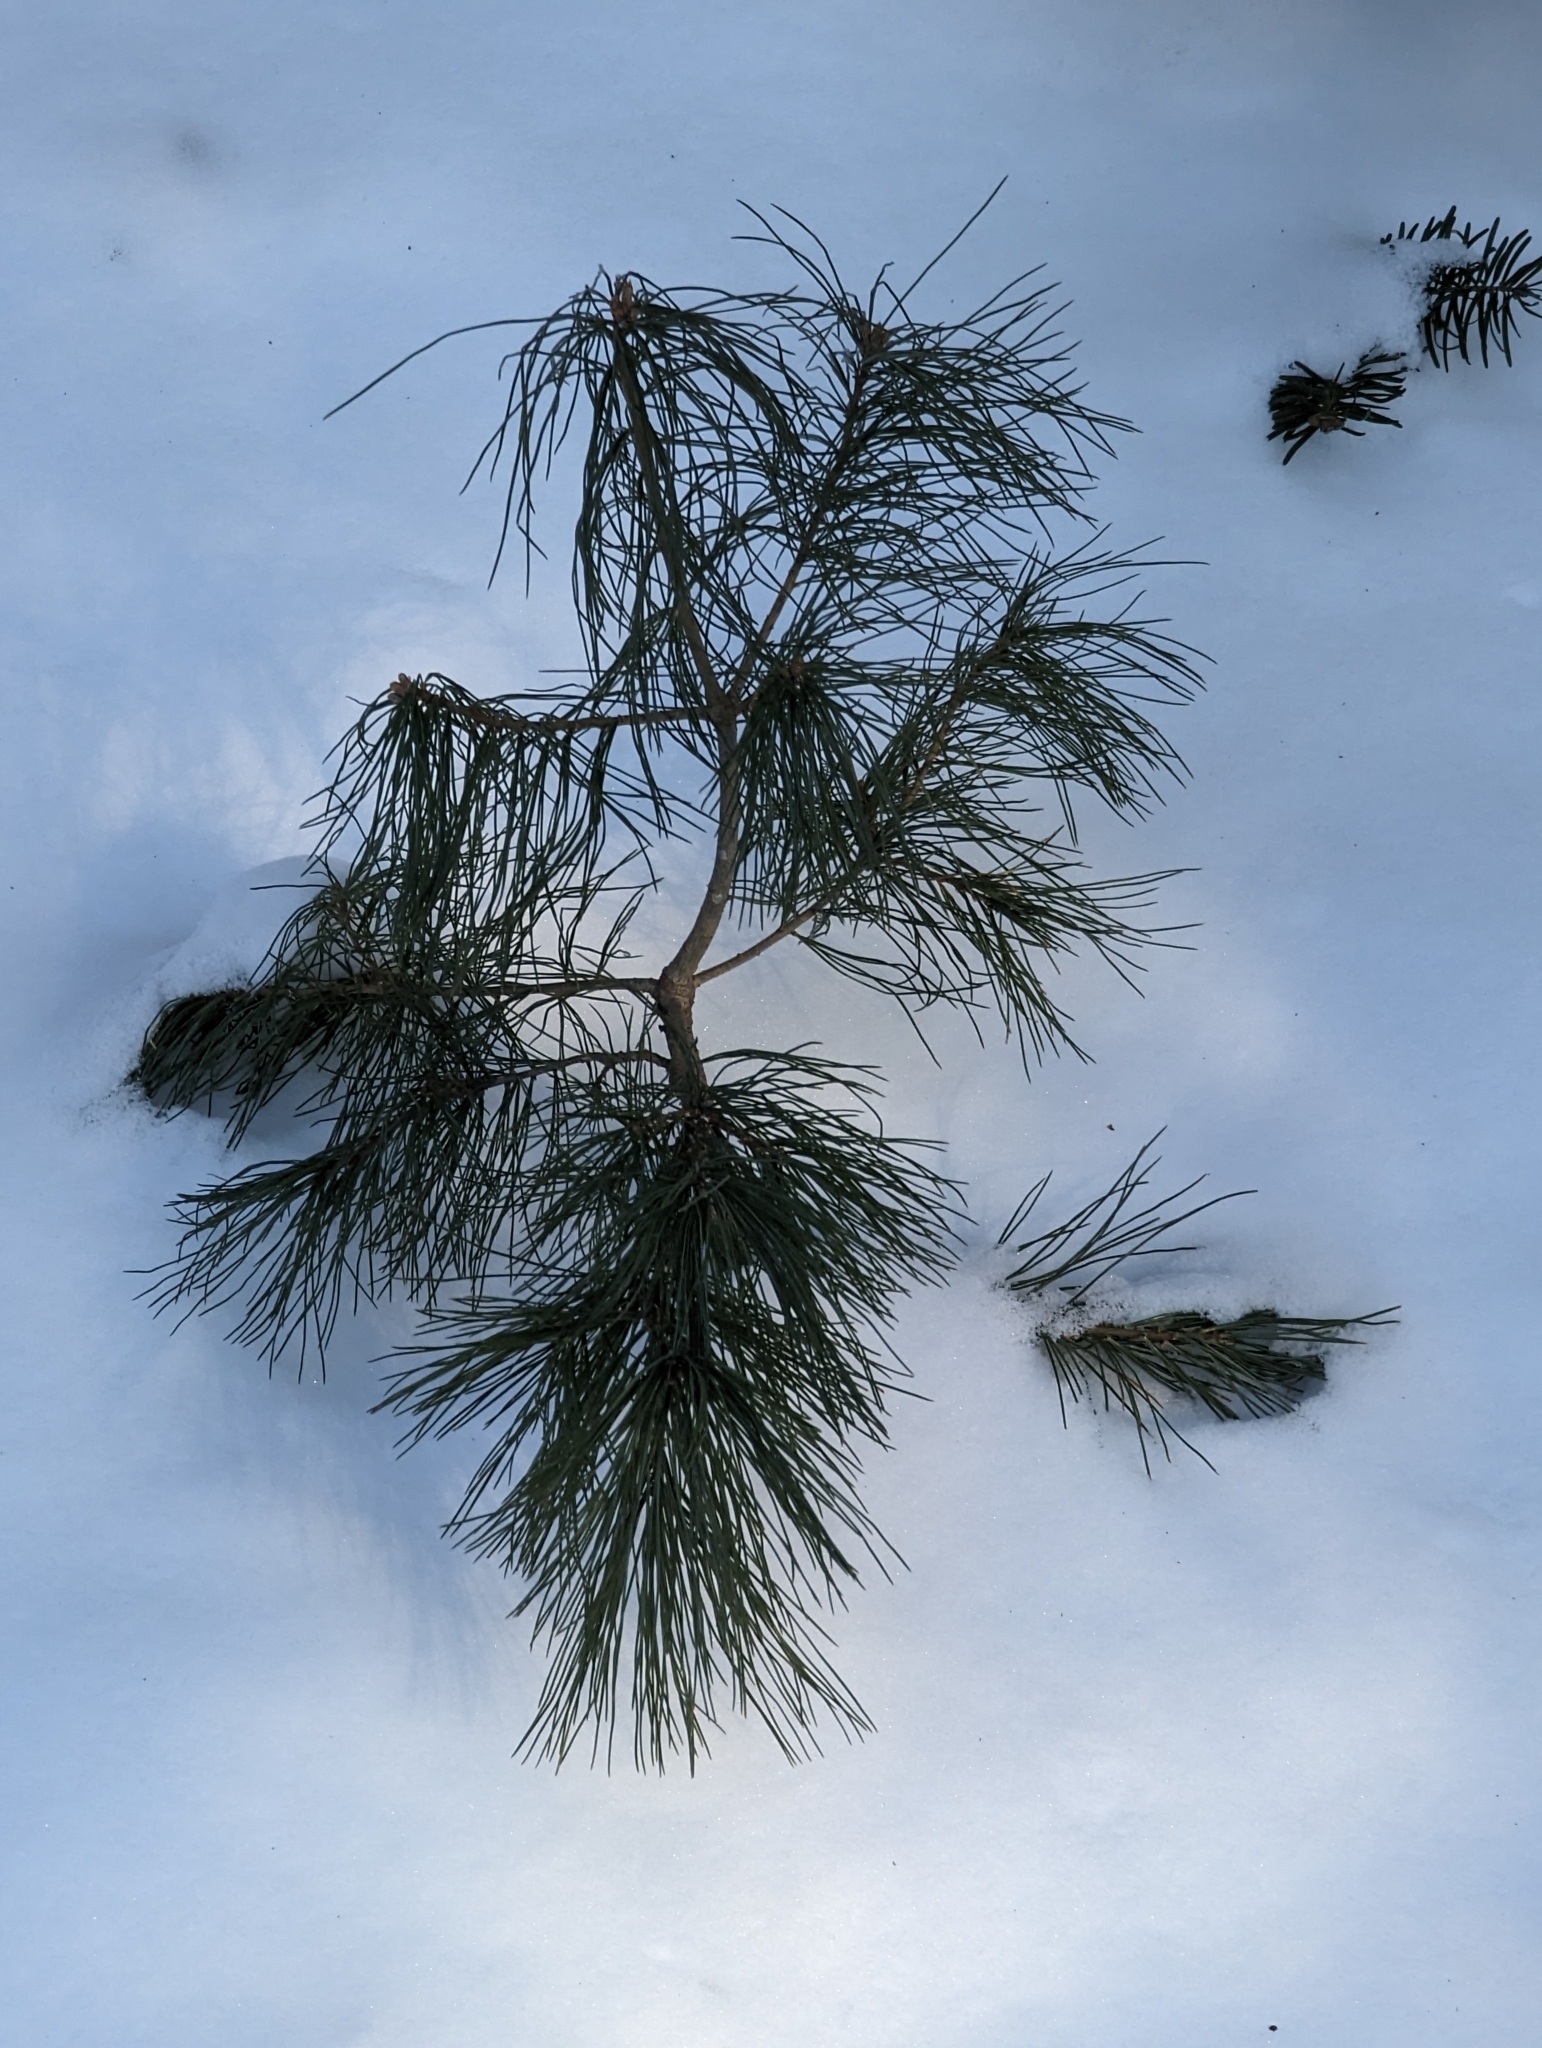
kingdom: Plantae
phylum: Tracheophyta
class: Pinopsida
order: Pinales
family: Pinaceae
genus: Pinus
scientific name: Pinus strobus
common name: Weymouth pine
